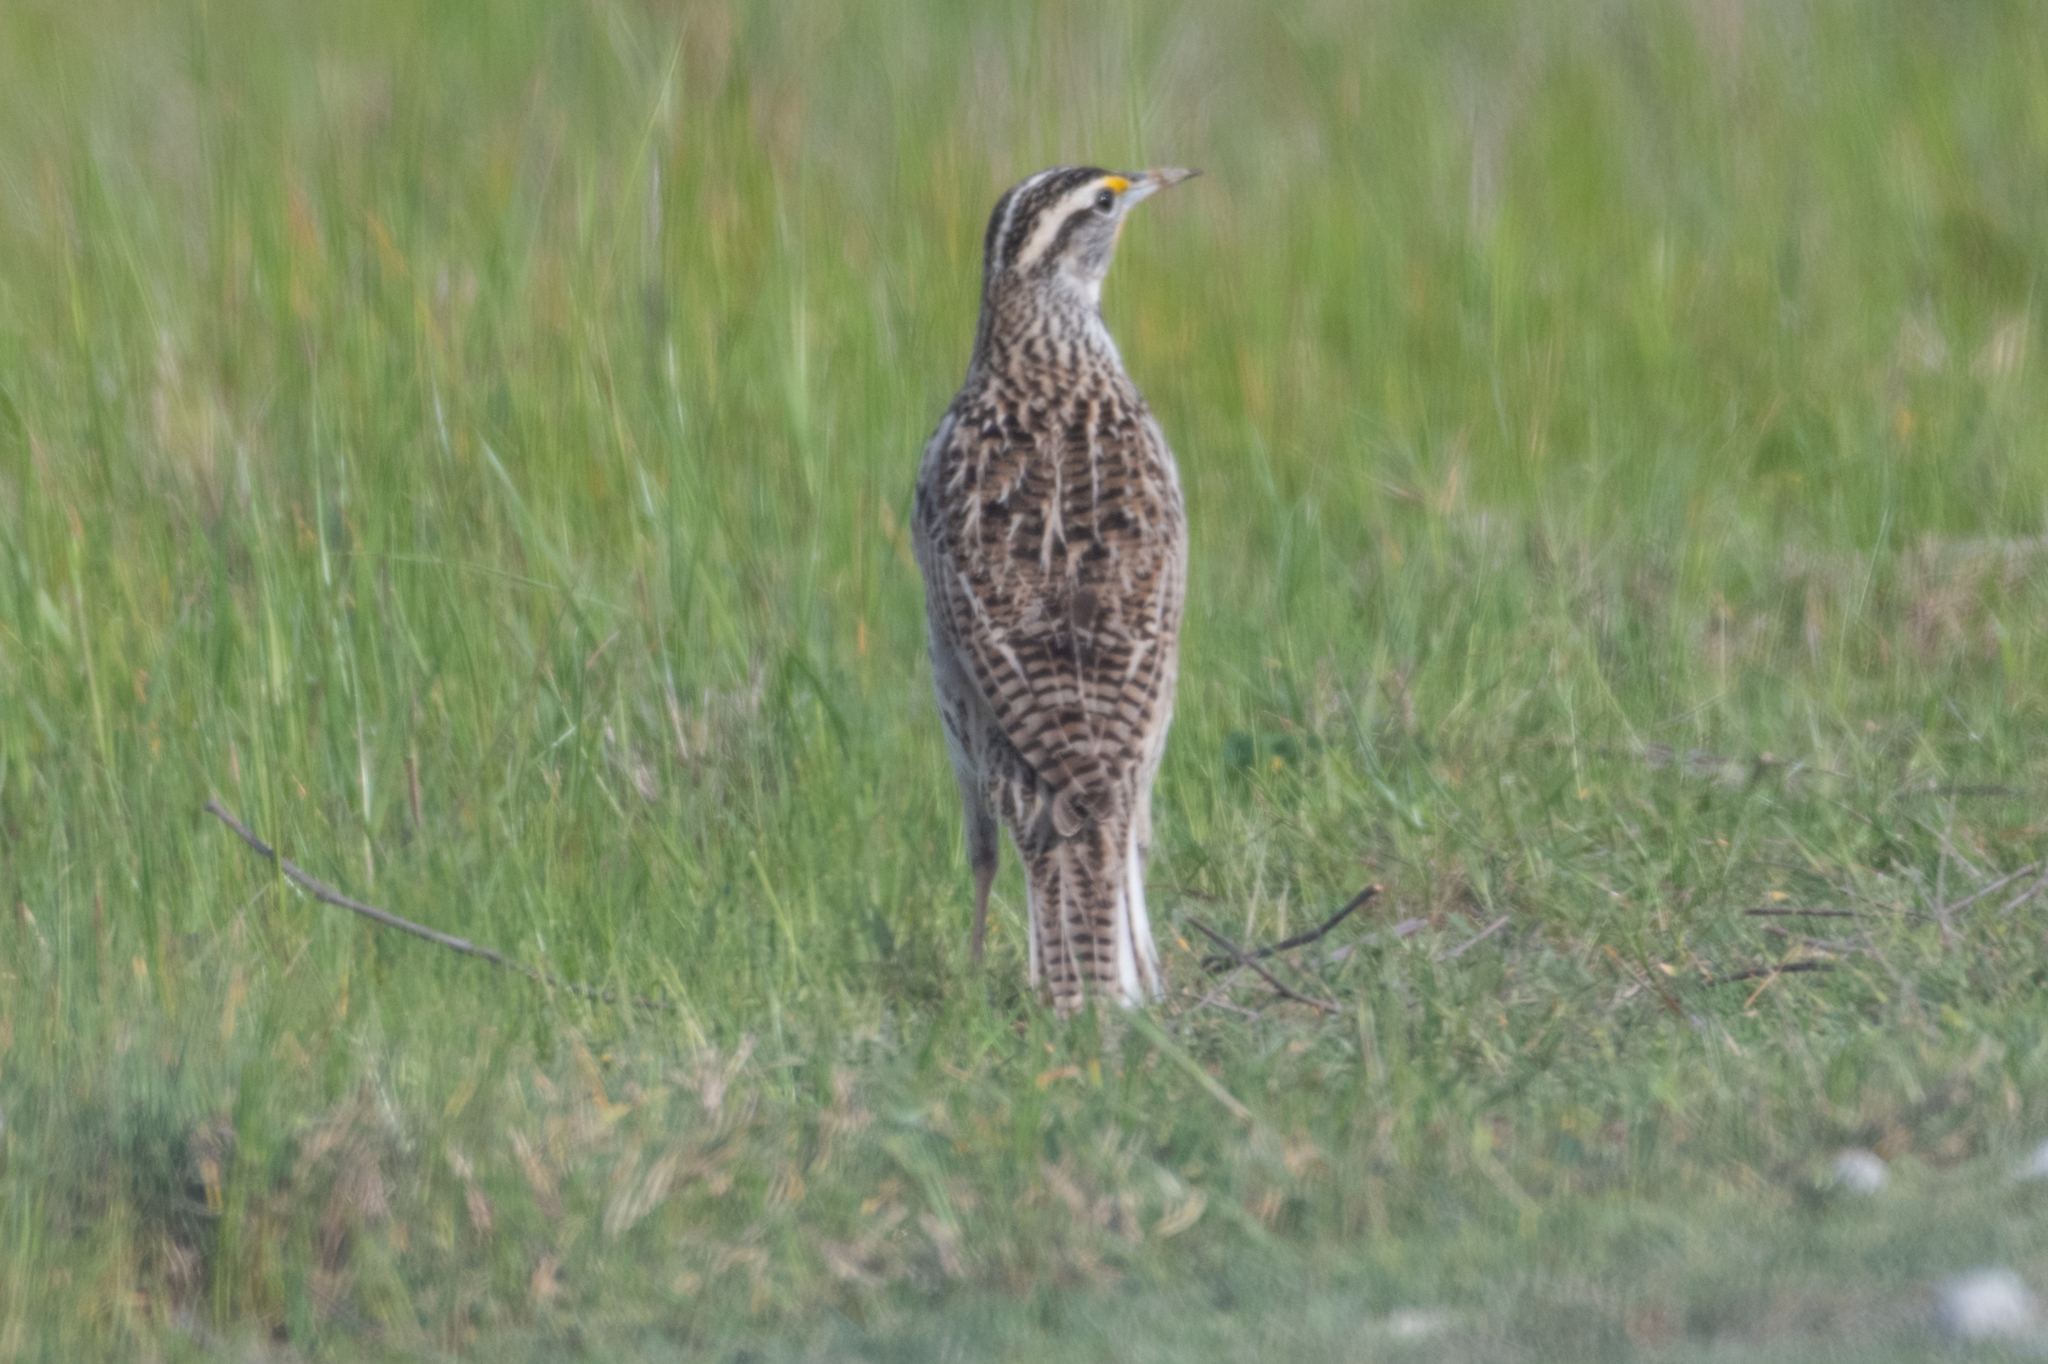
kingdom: Animalia
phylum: Chordata
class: Aves
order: Passeriformes
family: Icteridae
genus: Sturnella
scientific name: Sturnella neglecta
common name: Western meadowlark
